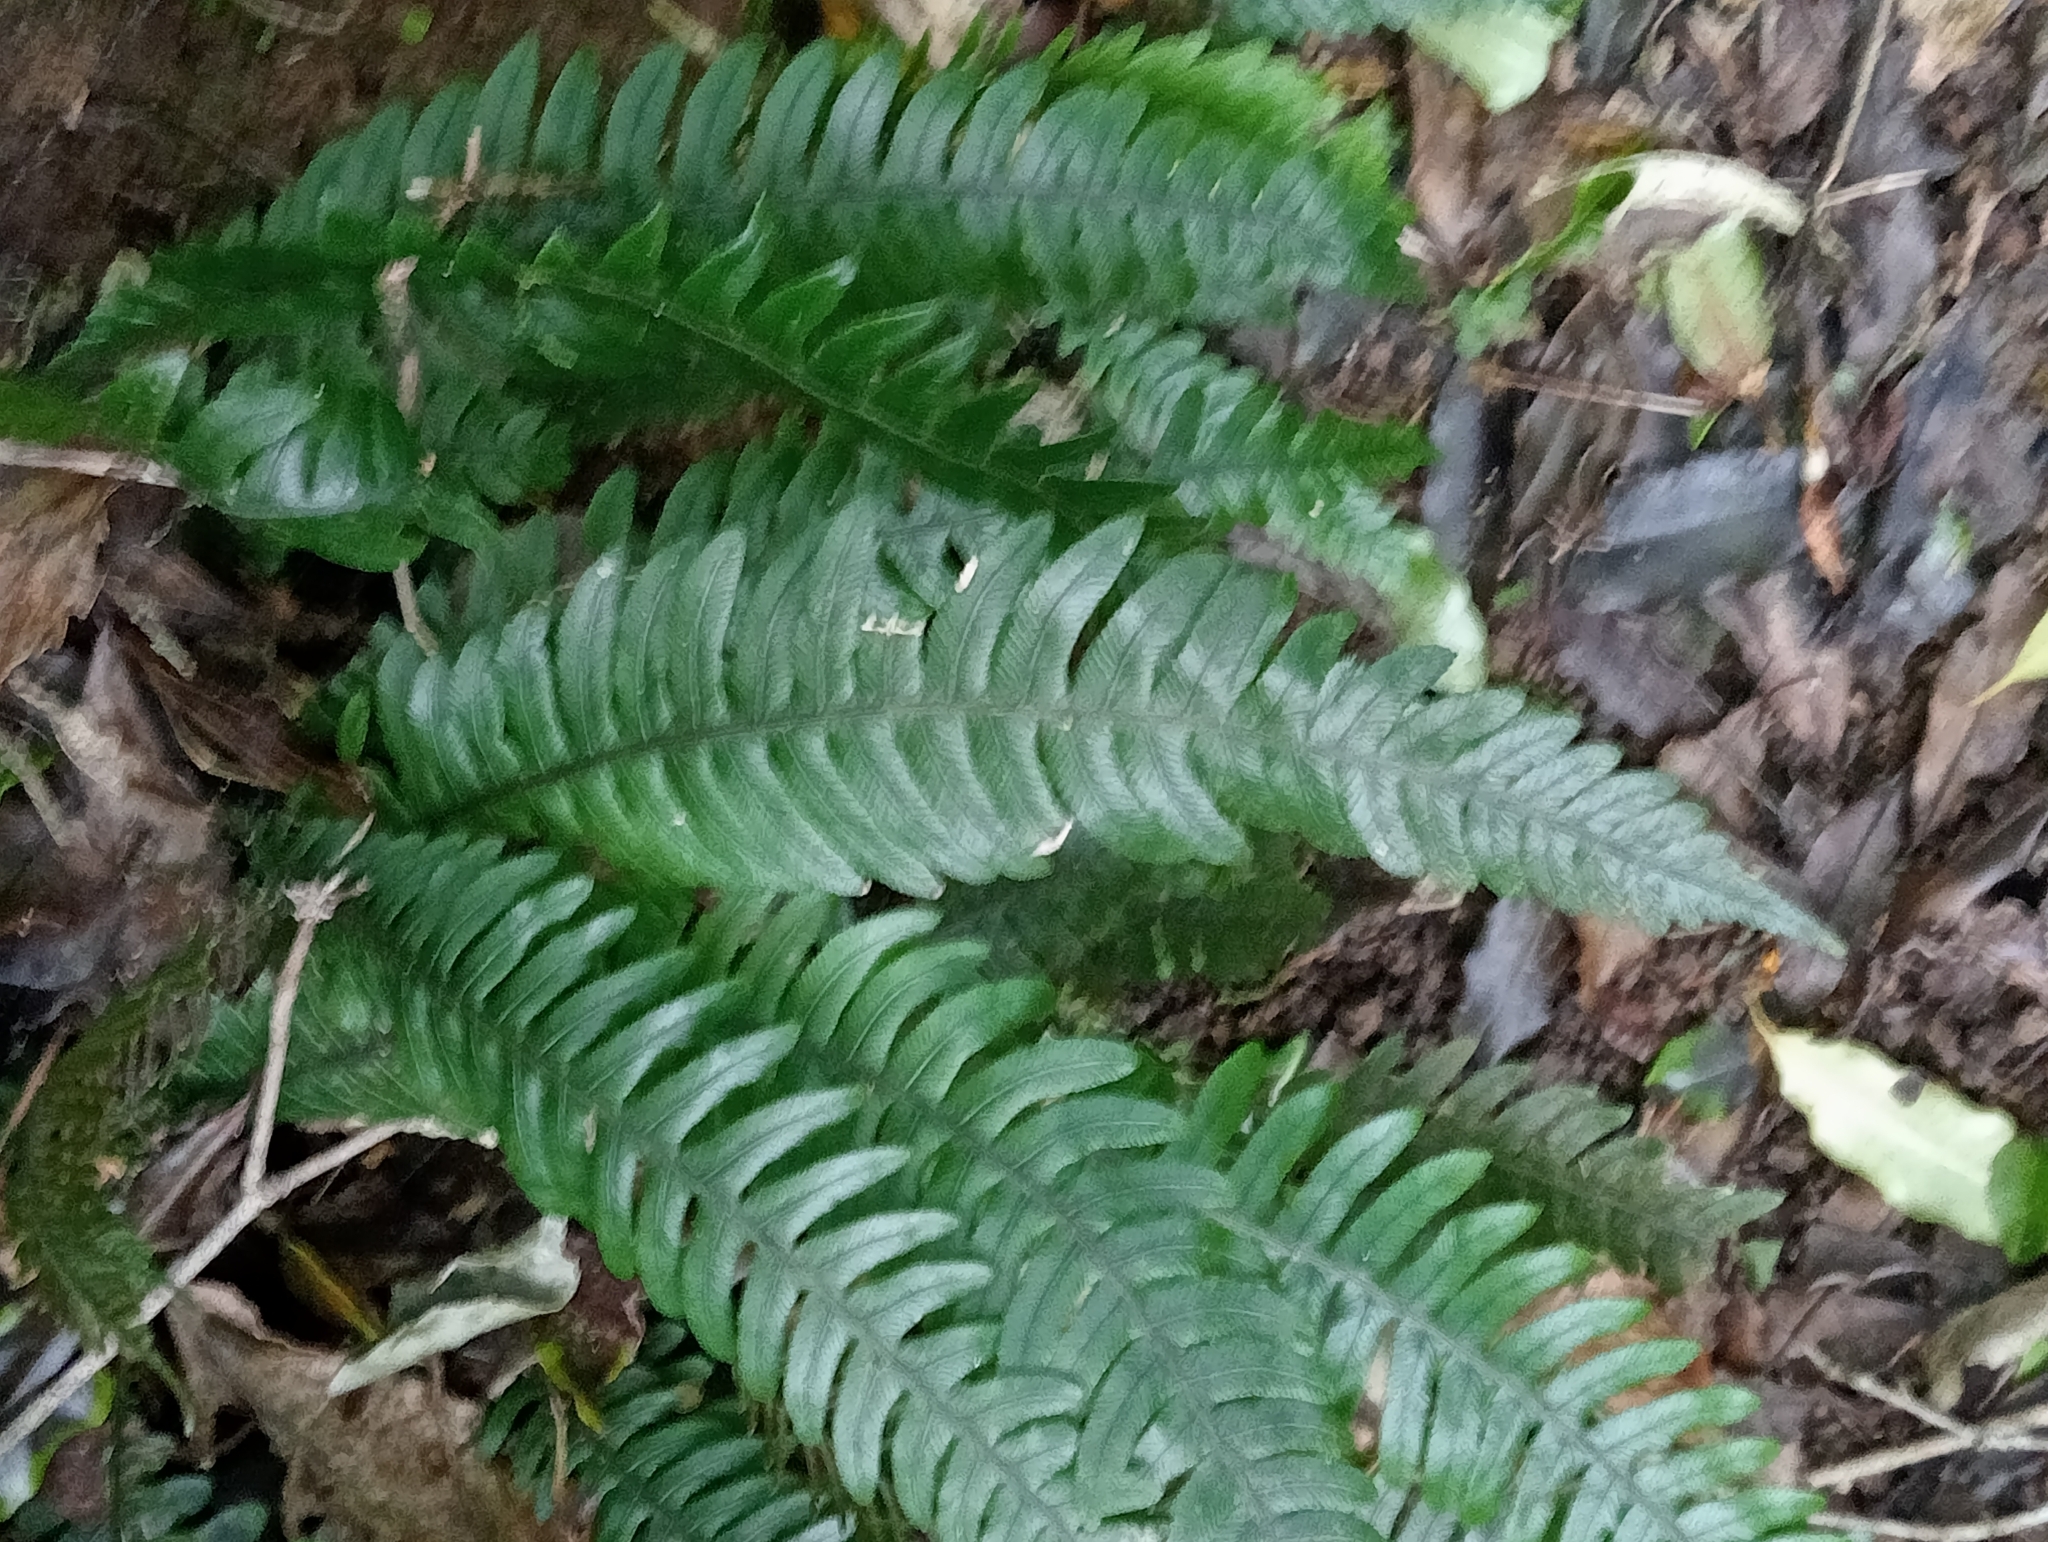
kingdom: Plantae
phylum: Tracheophyta
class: Polypodiopsida
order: Polypodiales
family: Blechnaceae
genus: Austroblechnum
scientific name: Austroblechnum lanceolatum
